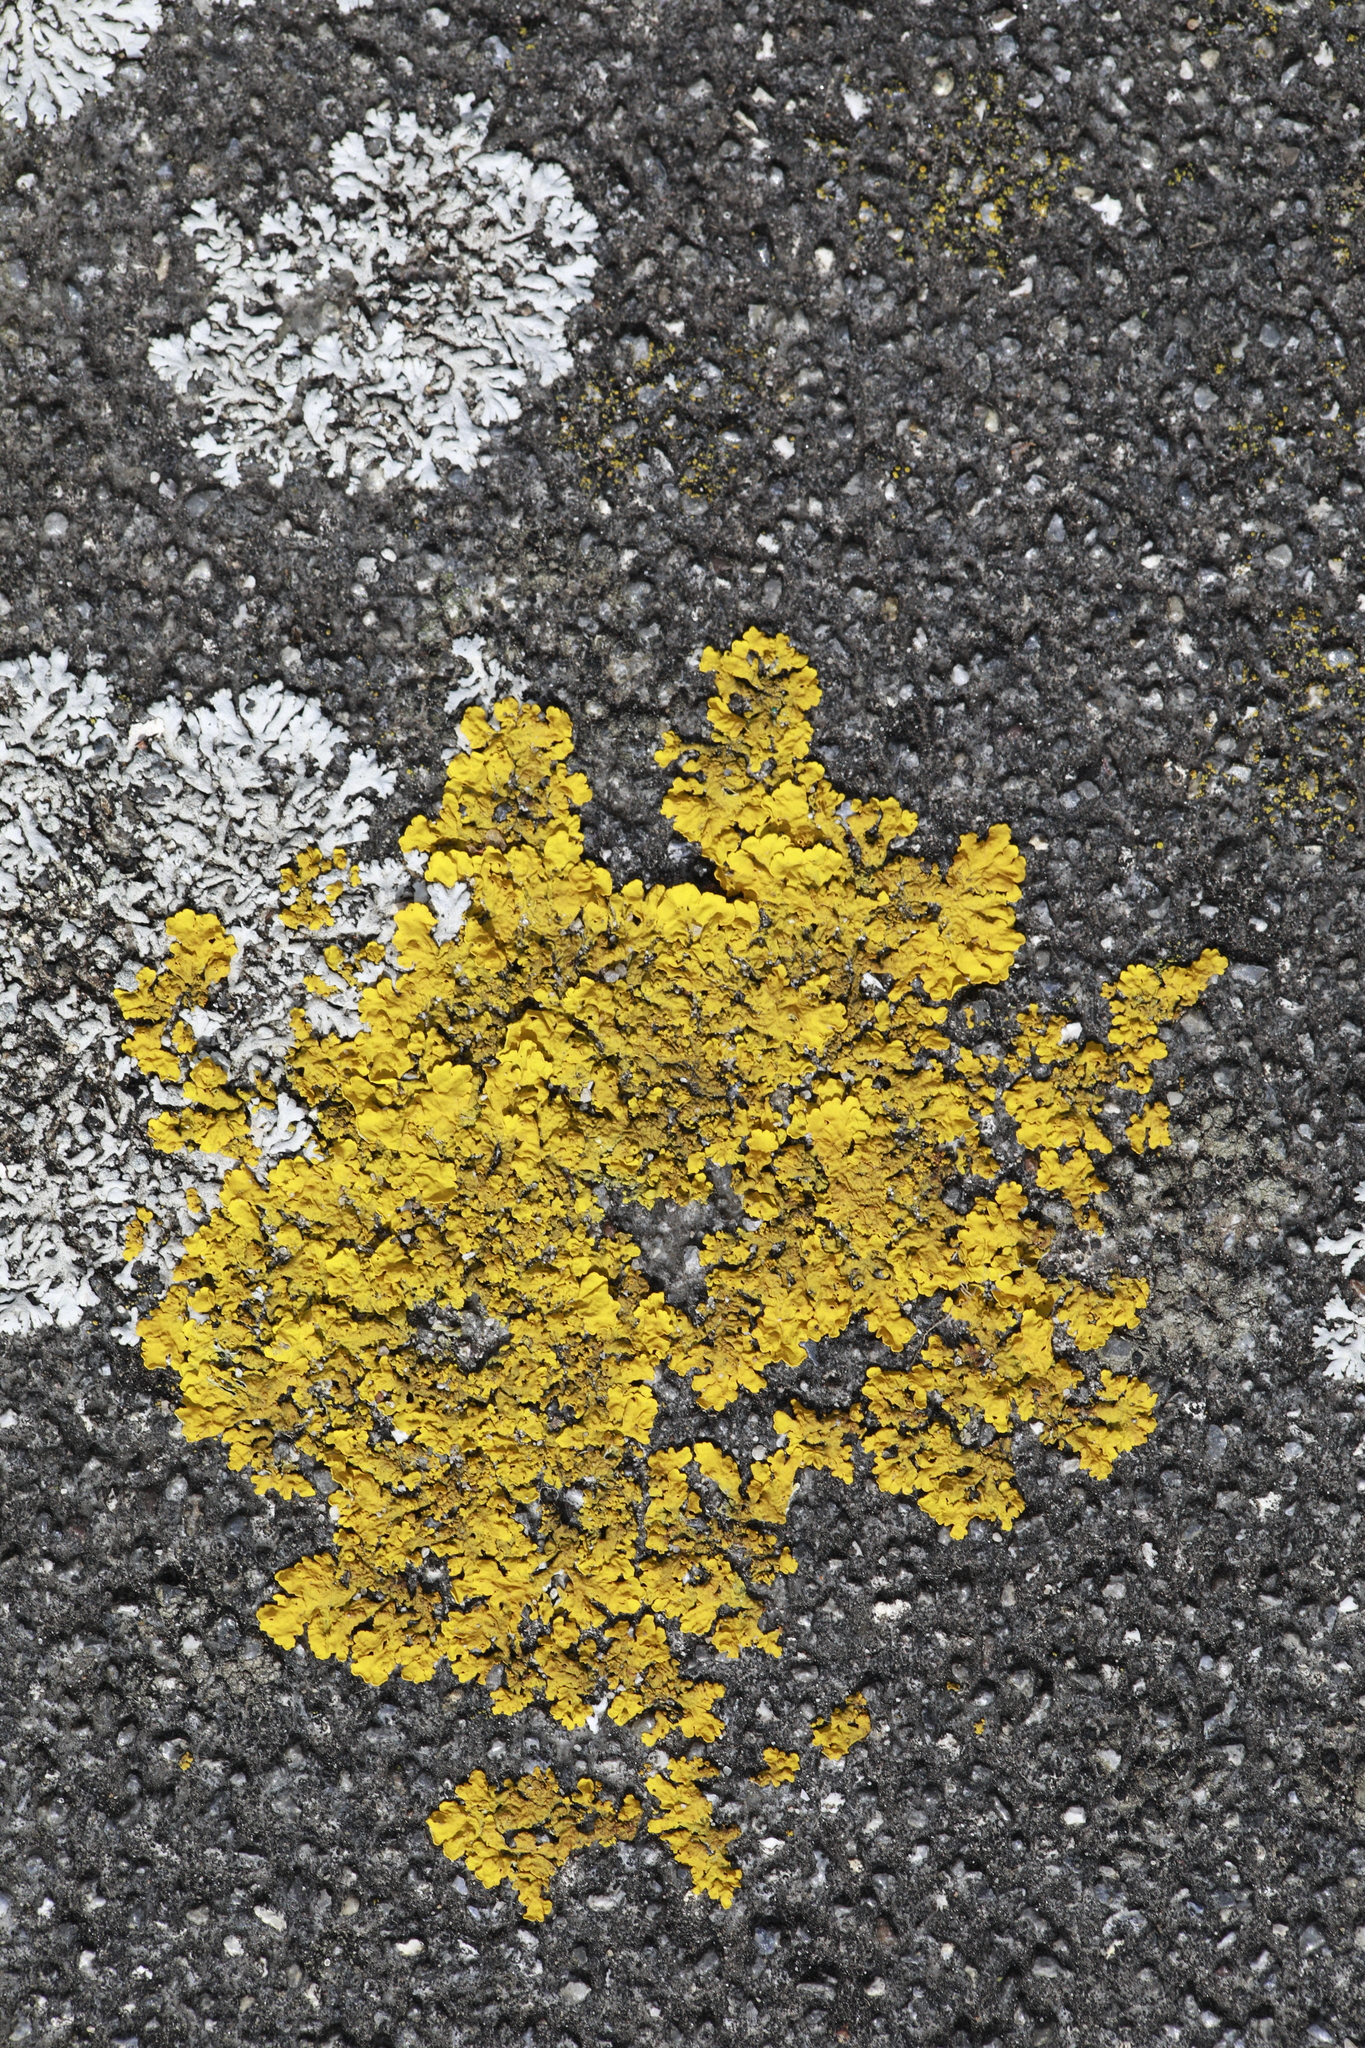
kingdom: Fungi
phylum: Ascomycota
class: Lecanoromycetes
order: Teloschistales
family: Teloschistaceae
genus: Xanthoria
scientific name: Xanthoria parietina
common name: Common orange lichen
